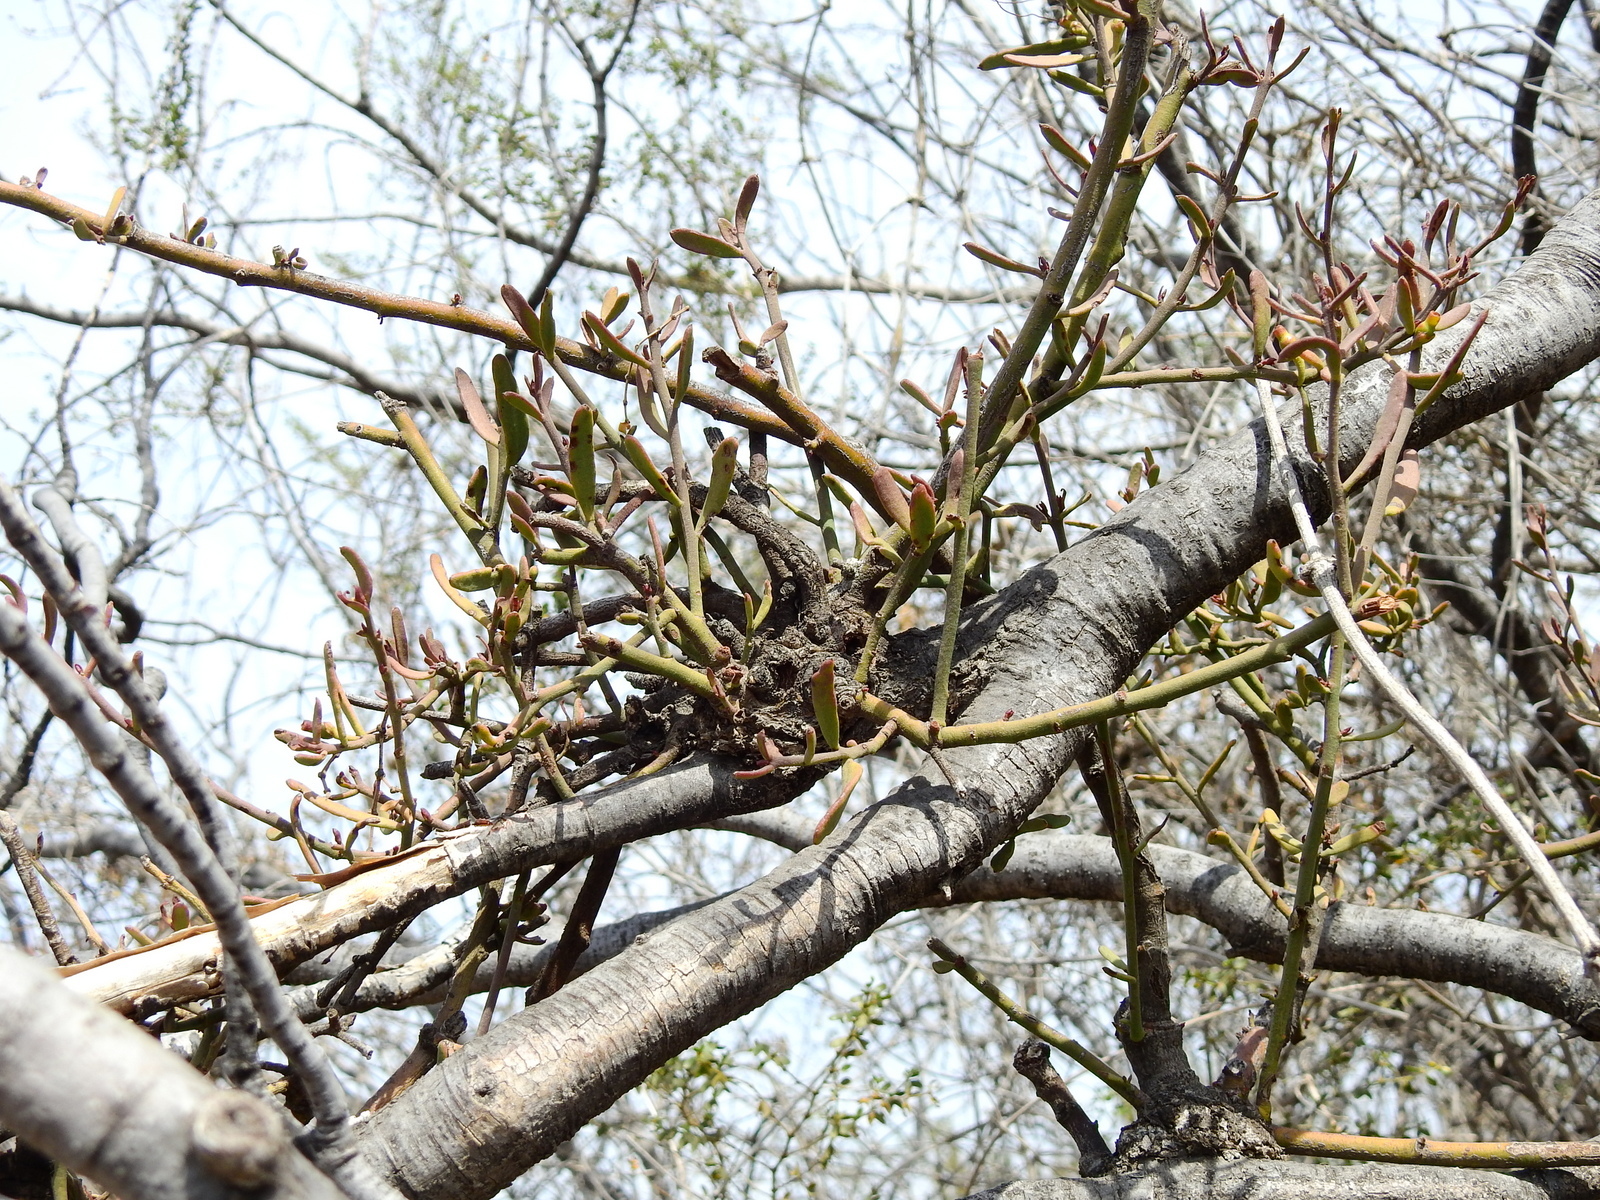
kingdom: Plantae
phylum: Tracheophyta
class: Magnoliopsida
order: Santalales
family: Loranthaceae
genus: Ligaria
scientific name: Ligaria cuneifolia
